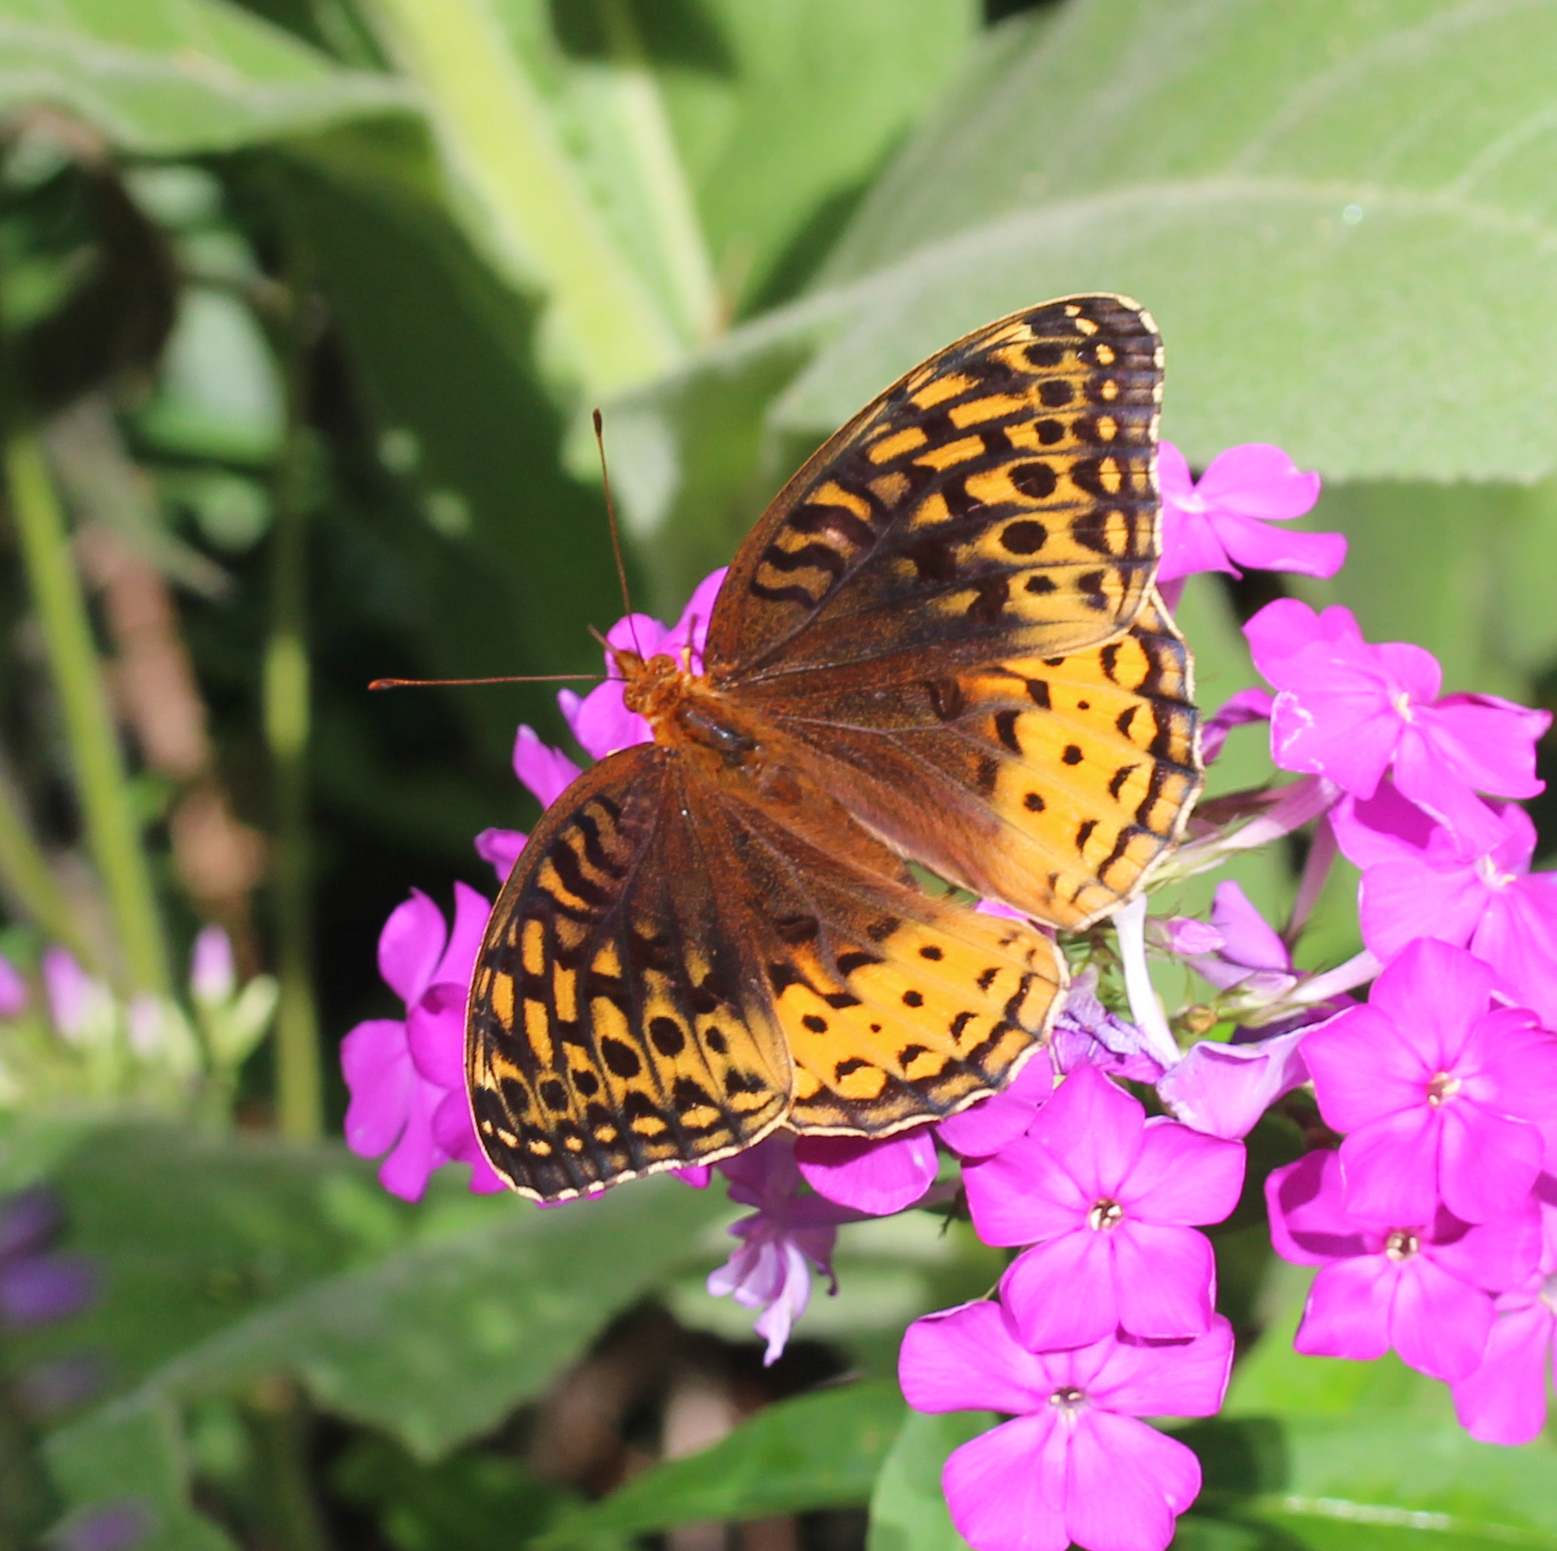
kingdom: Animalia
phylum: Arthropoda
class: Insecta
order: Lepidoptera
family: Nymphalidae
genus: Speyeria
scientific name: Speyeria cybele
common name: Great spangled fritillary
